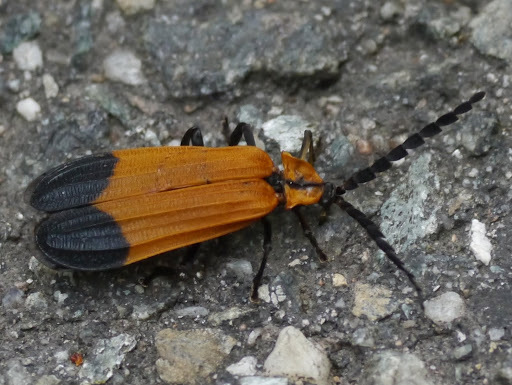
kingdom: Animalia
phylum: Arthropoda
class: Insecta
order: Coleoptera
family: Lycidae
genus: Calopteron
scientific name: Calopteron reticulatum
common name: Banded net-winged beetle
